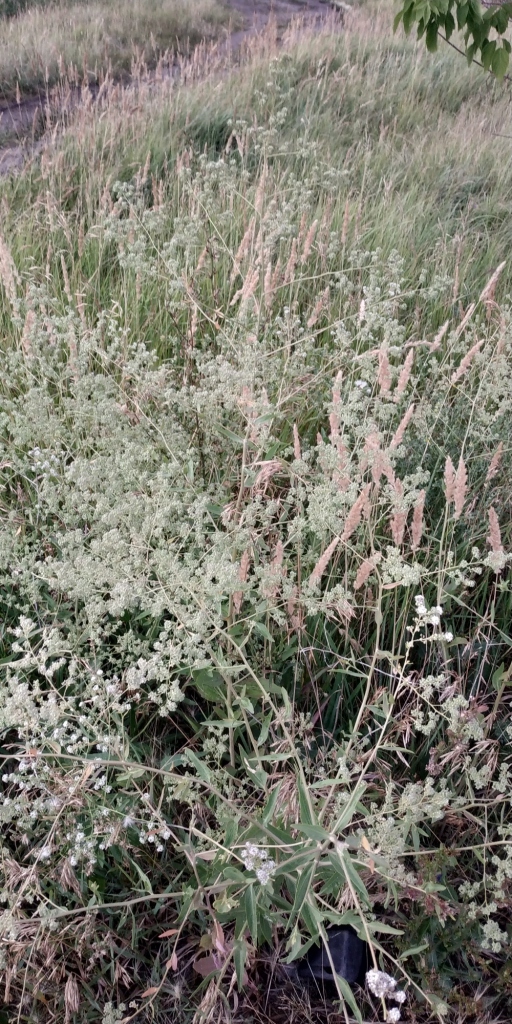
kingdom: Plantae
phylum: Tracheophyta
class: Magnoliopsida
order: Brassicales
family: Brassicaceae
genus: Lepidium
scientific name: Lepidium latifolium
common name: Dittander
